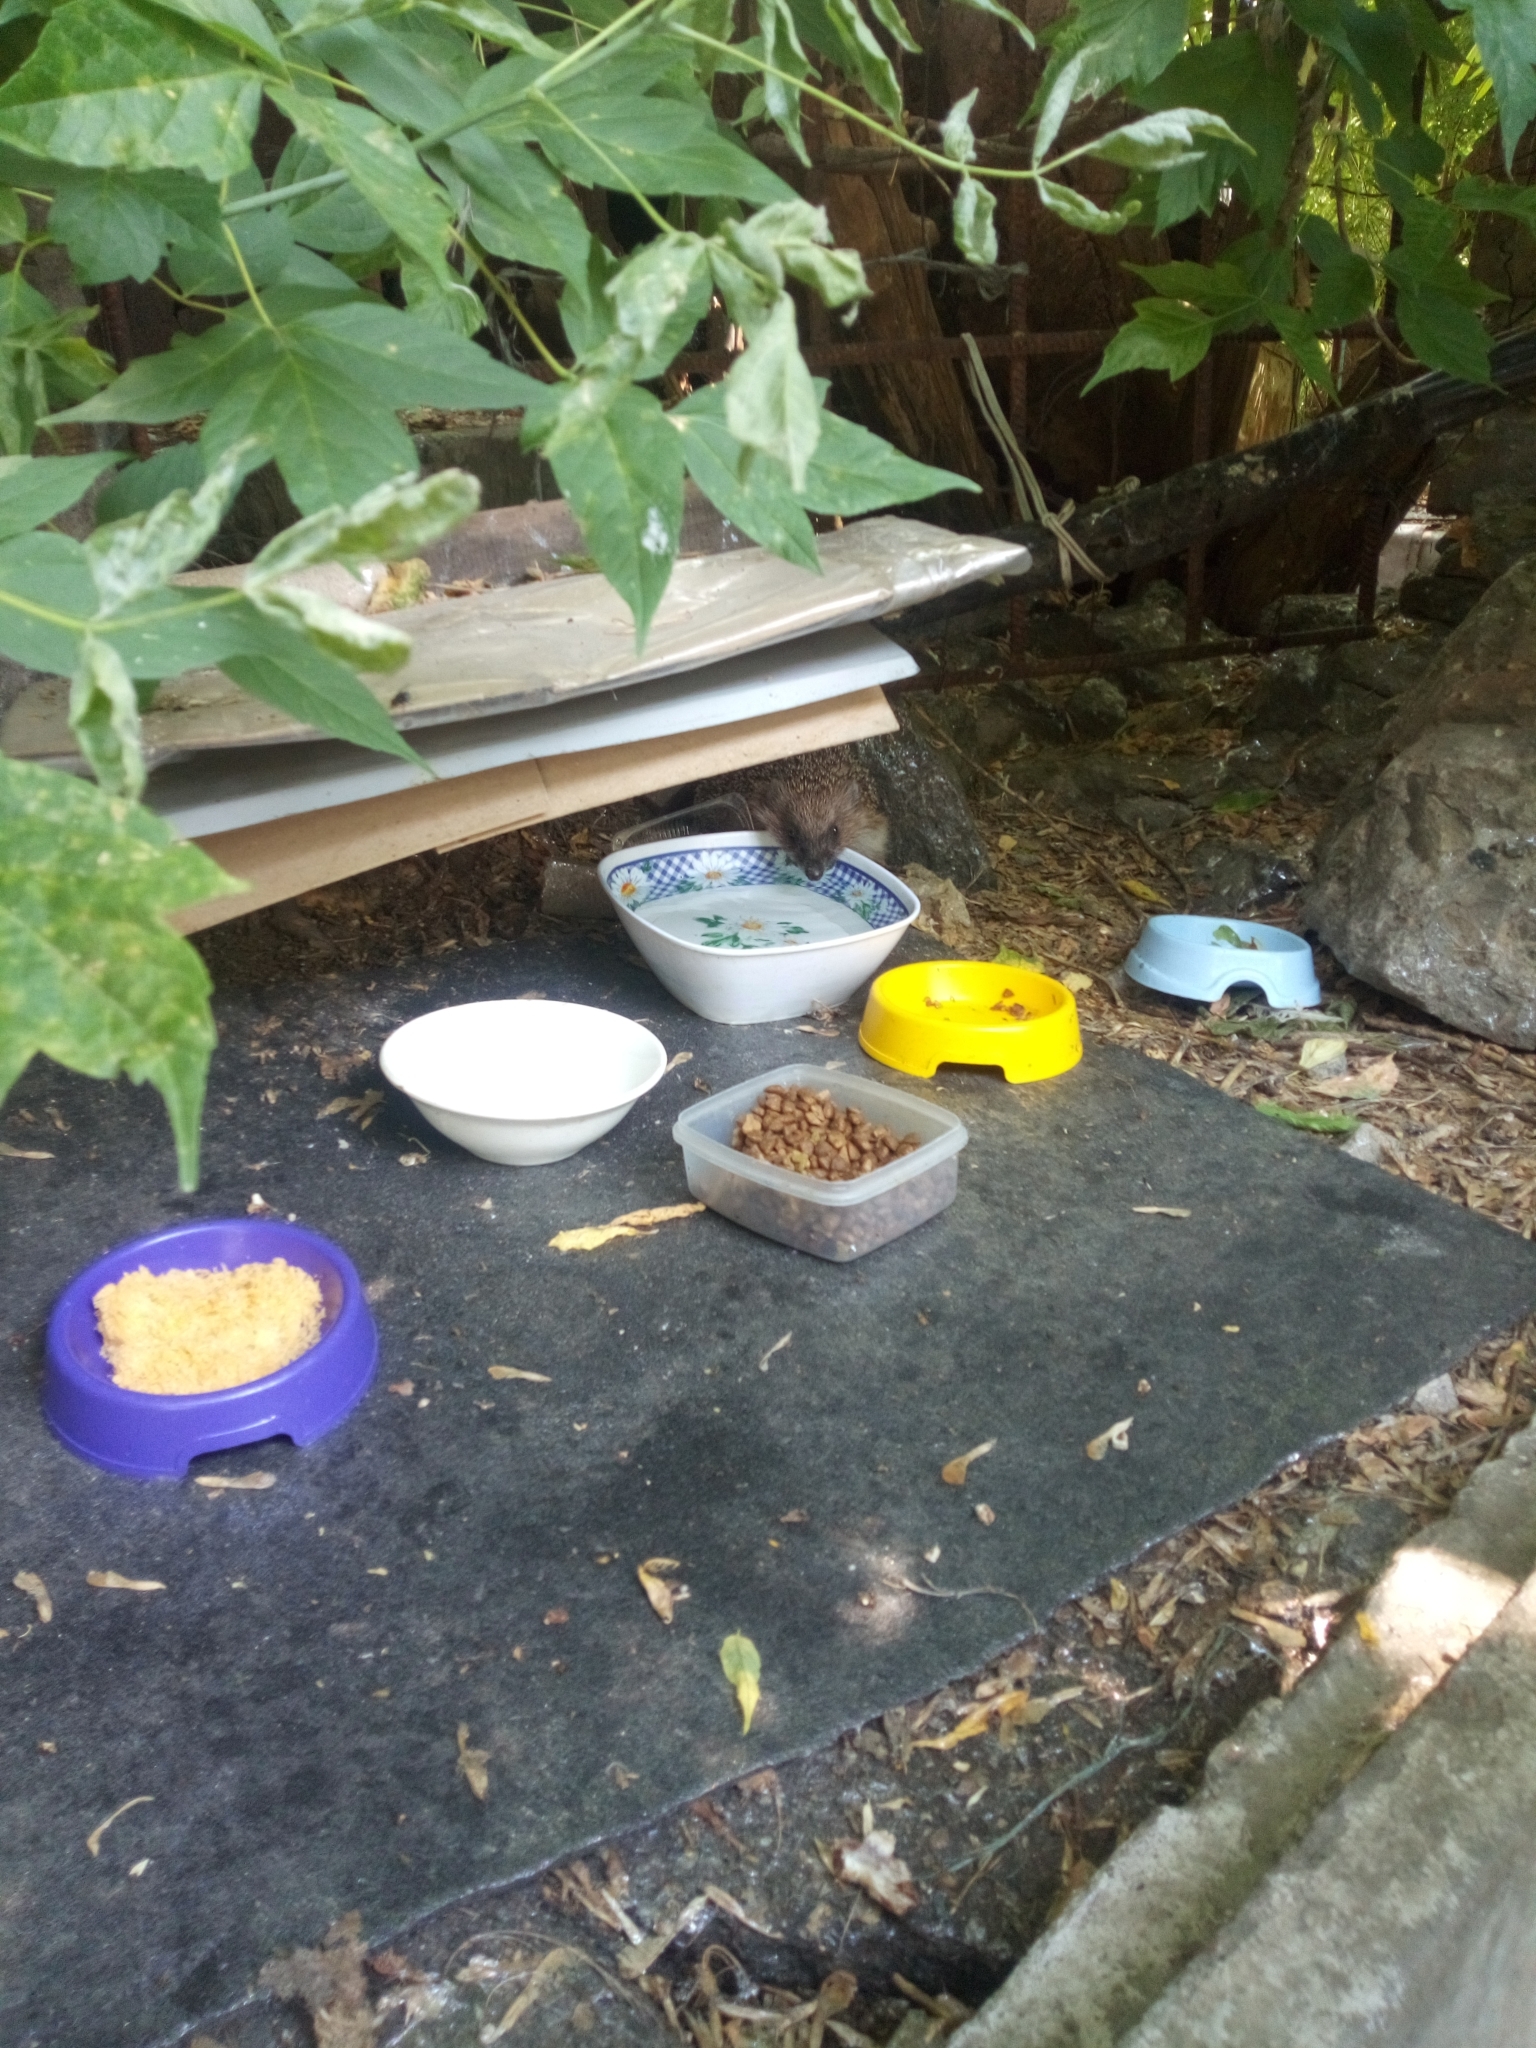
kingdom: Animalia
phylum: Chordata
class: Mammalia
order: Erinaceomorpha
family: Erinaceidae
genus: Erinaceus
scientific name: Erinaceus roumanicus
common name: Northern white-breasted hedgehog
